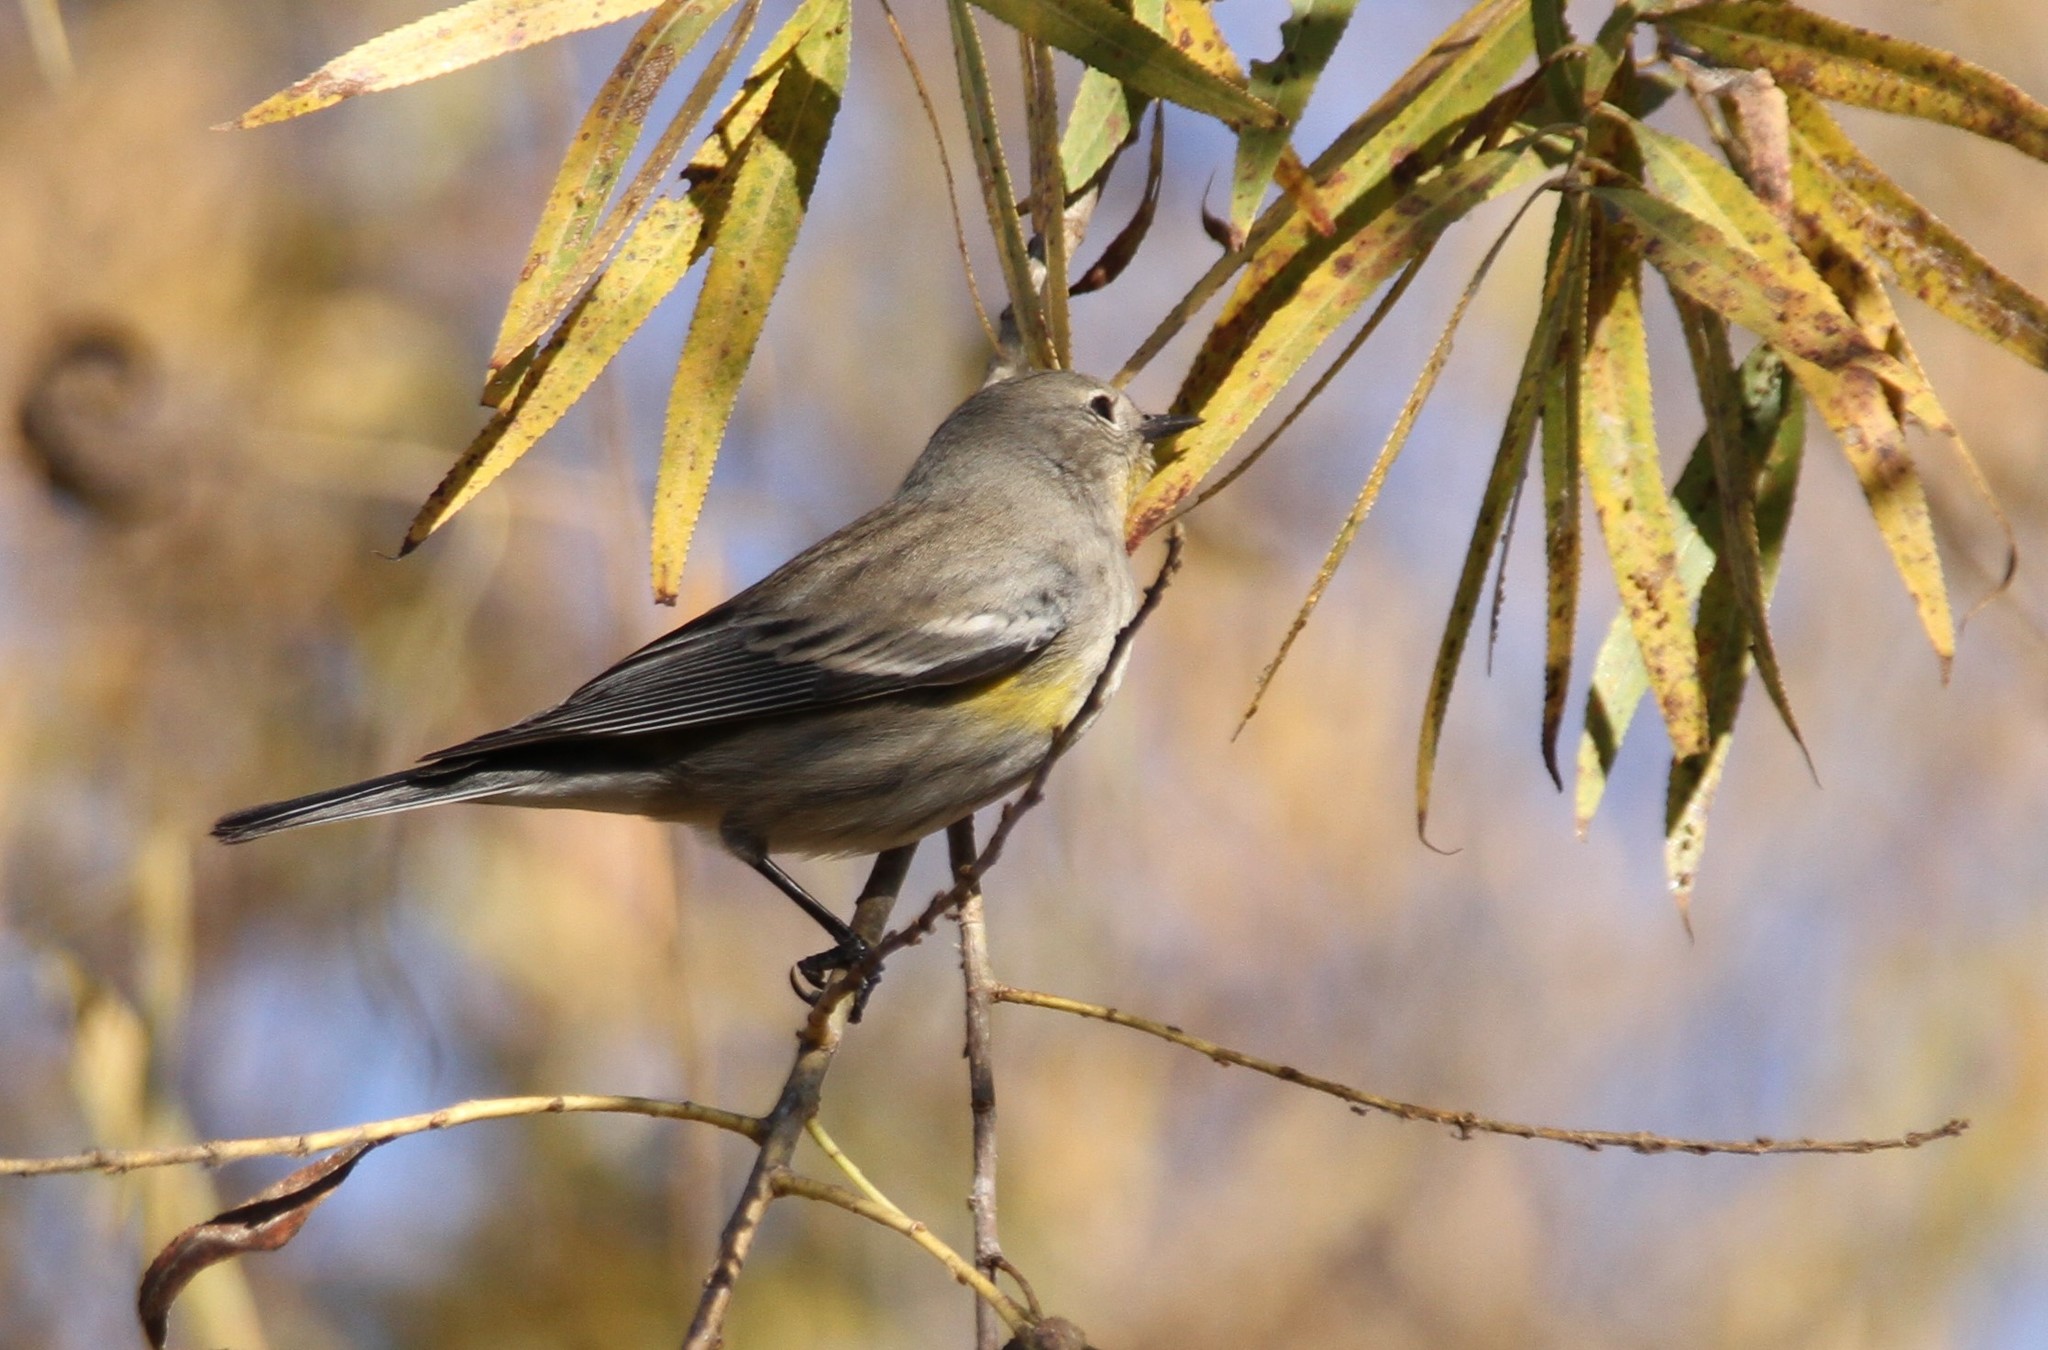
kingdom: Animalia
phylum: Chordata
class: Aves
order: Passeriformes
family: Parulidae
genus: Setophaga
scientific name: Setophaga auduboni
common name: Audubon's warbler
